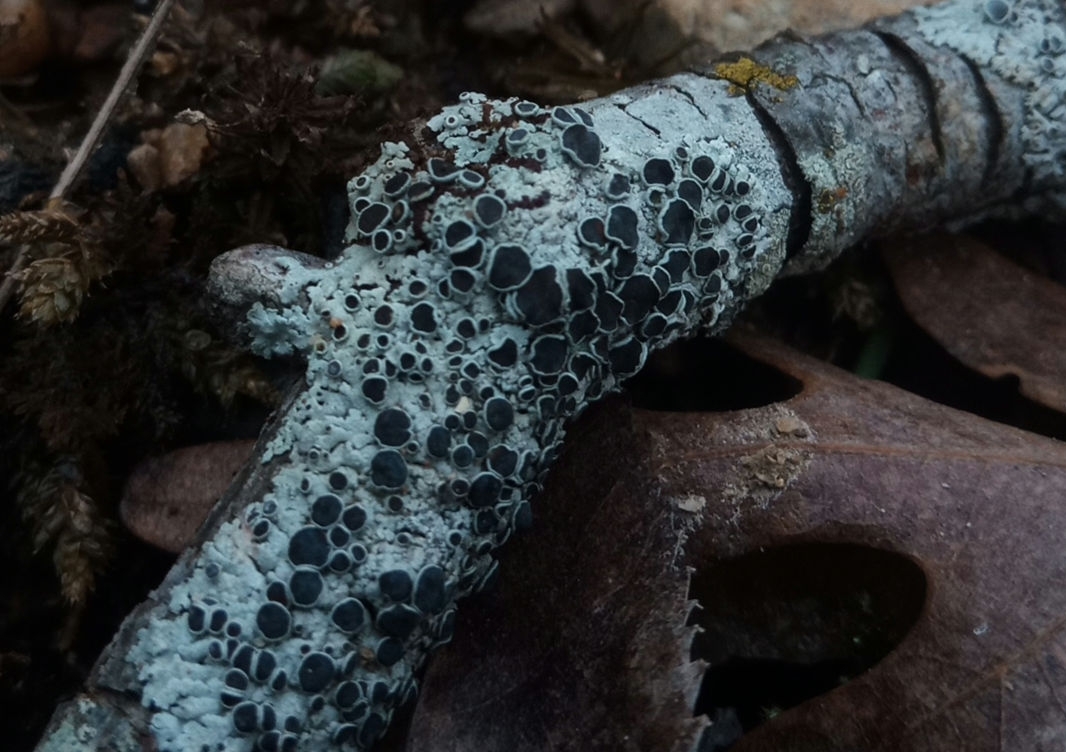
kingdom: Fungi
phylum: Ascomycota
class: Lecanoromycetes
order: Caliciales
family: Physciaceae
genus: Physcia
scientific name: Physcia stellaris
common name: Star rosette lichen
